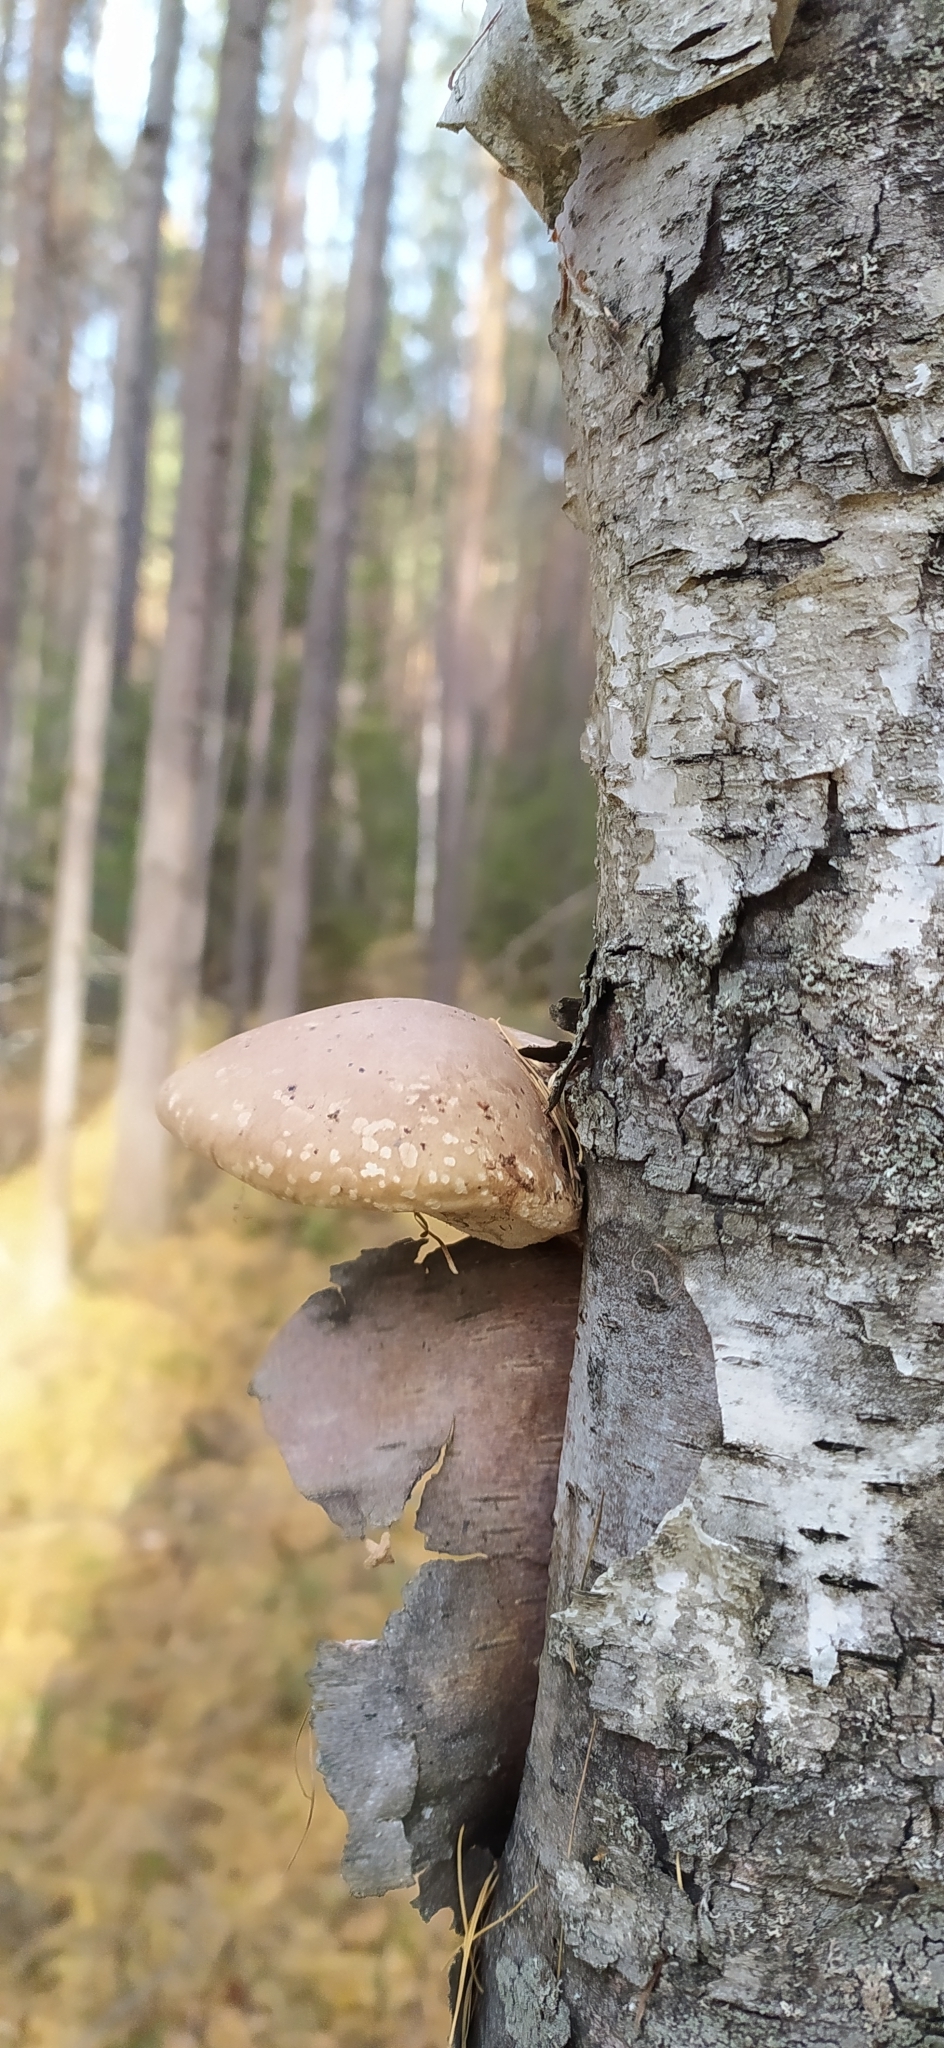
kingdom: Fungi
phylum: Basidiomycota
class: Agaricomycetes
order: Polyporales
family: Fomitopsidaceae
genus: Fomitopsis
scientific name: Fomitopsis betulina
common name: Birch polypore
